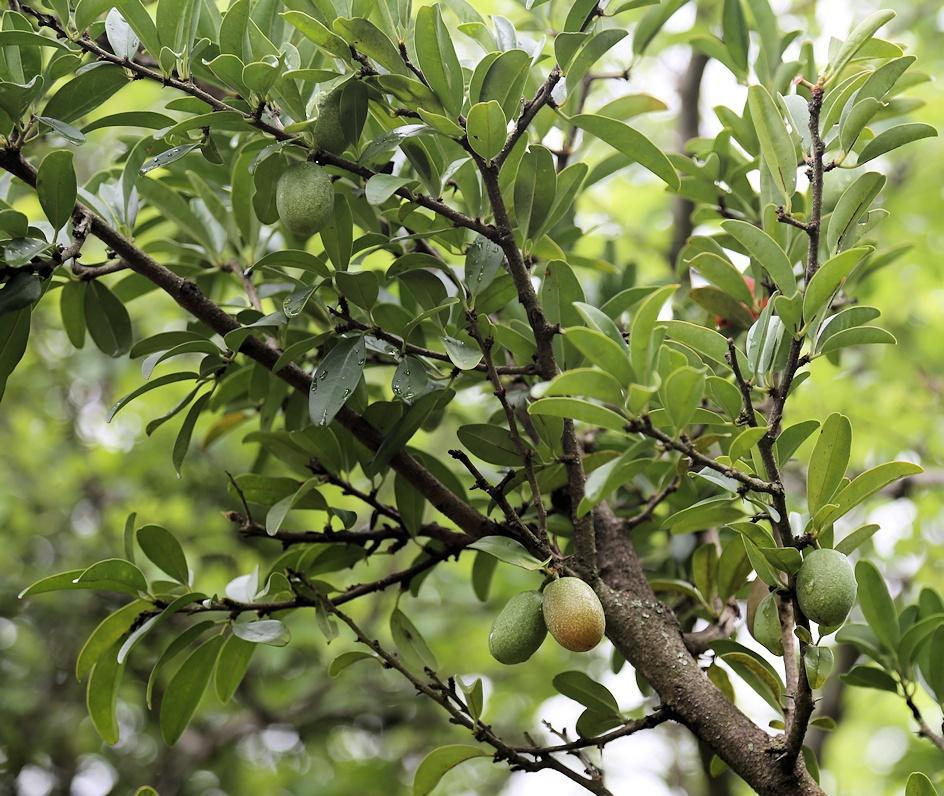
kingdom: Plantae
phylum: Tracheophyta
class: Magnoliopsida
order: Santalales
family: Ximeniaceae
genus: Ximenia
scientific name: Ximenia caffra
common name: Large sourplum
